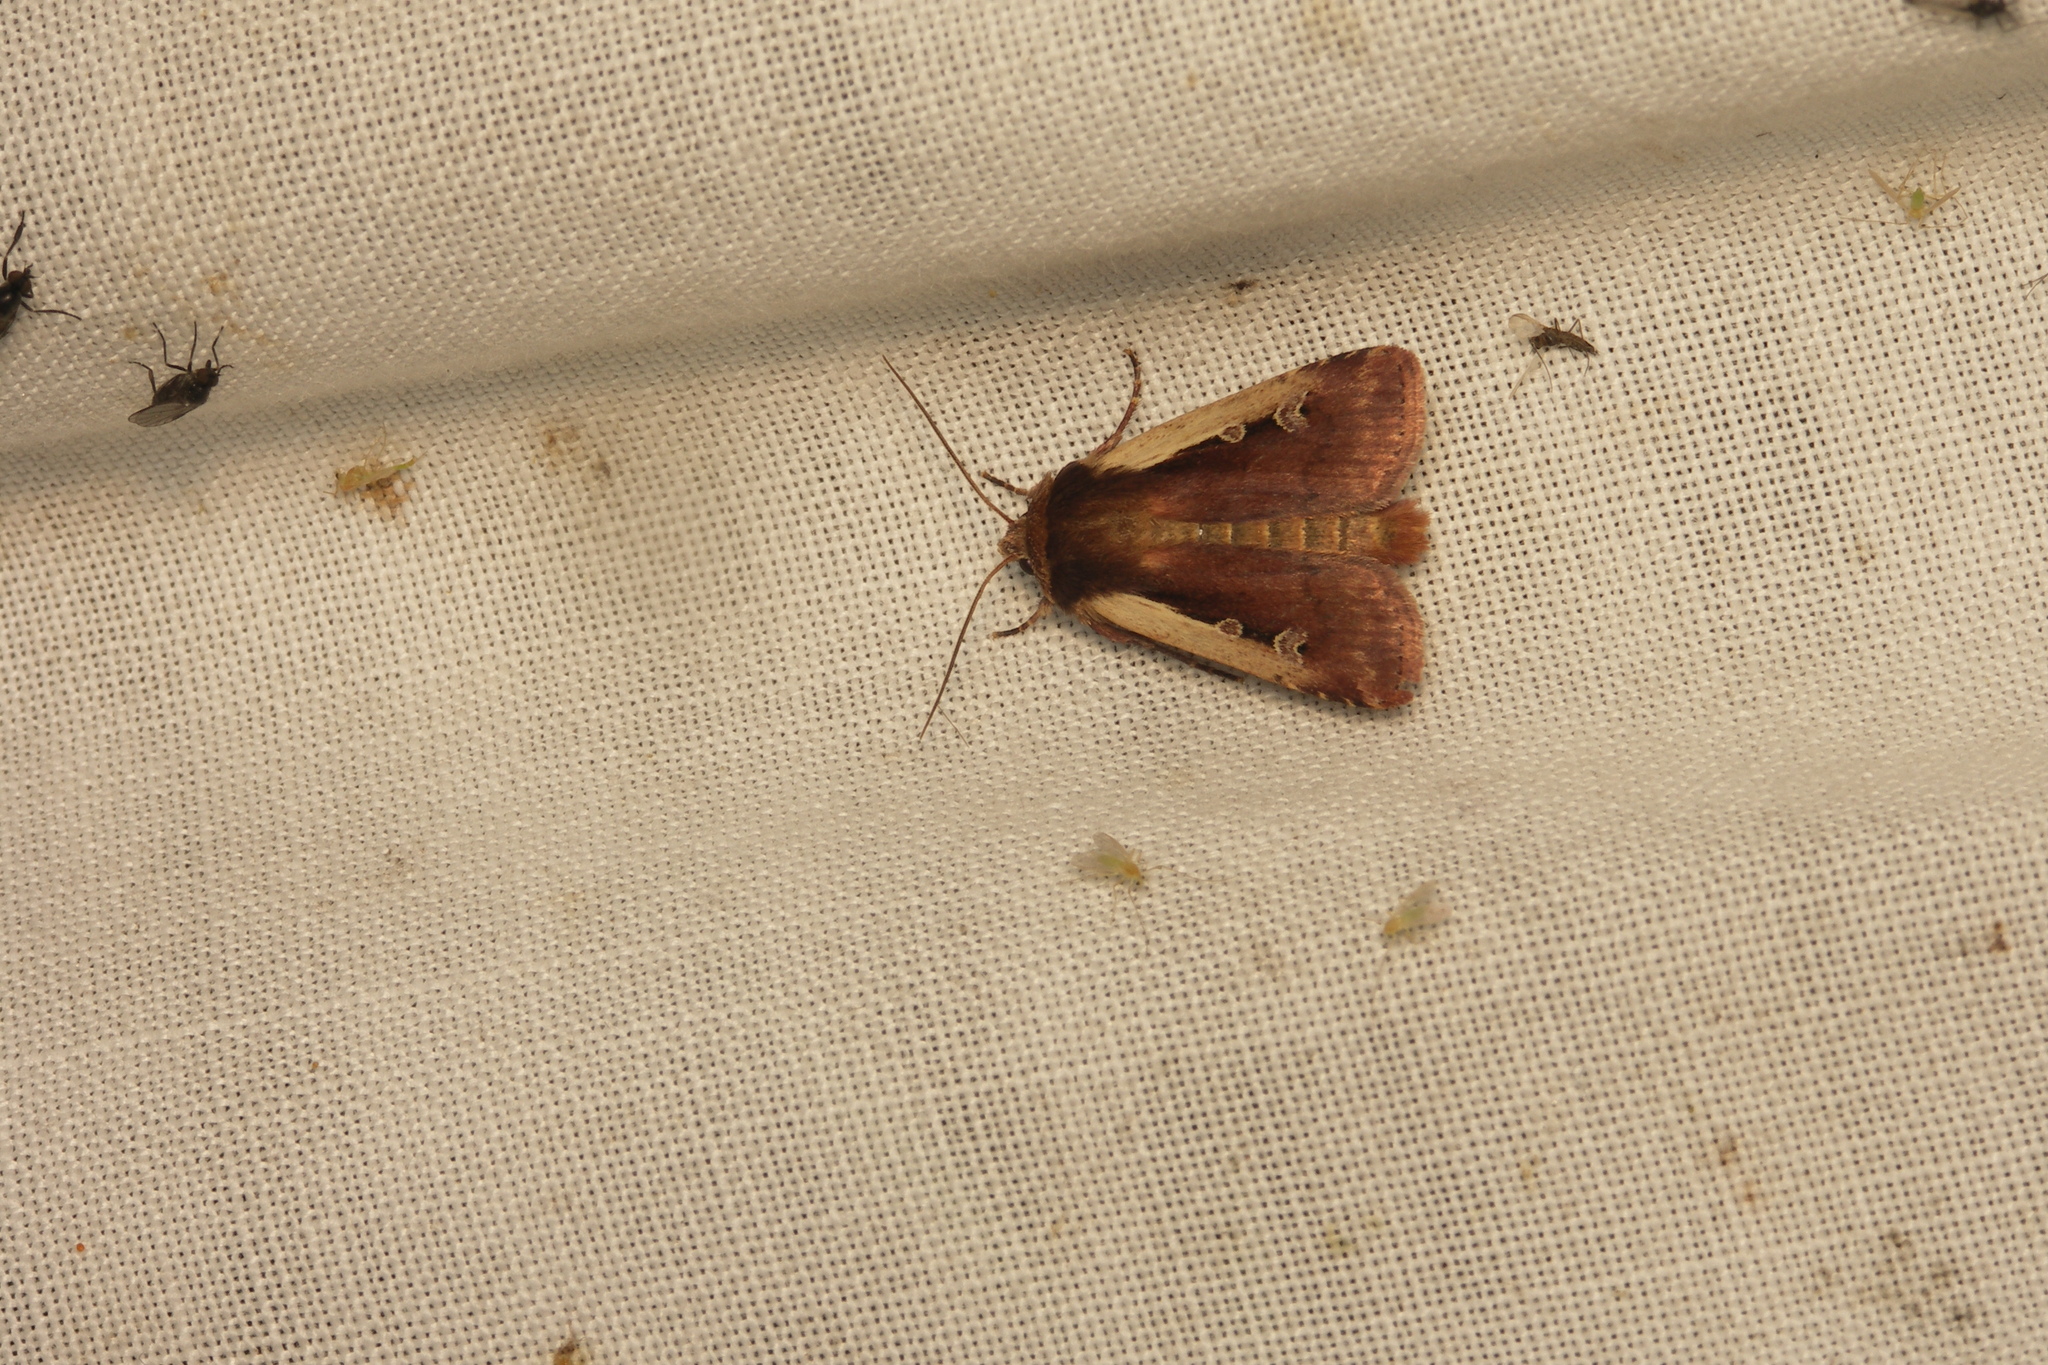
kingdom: Animalia
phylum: Arthropoda
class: Insecta
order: Lepidoptera
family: Noctuidae
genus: Ochropleura
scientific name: Ochropleura plecta
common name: Flame shoulder
